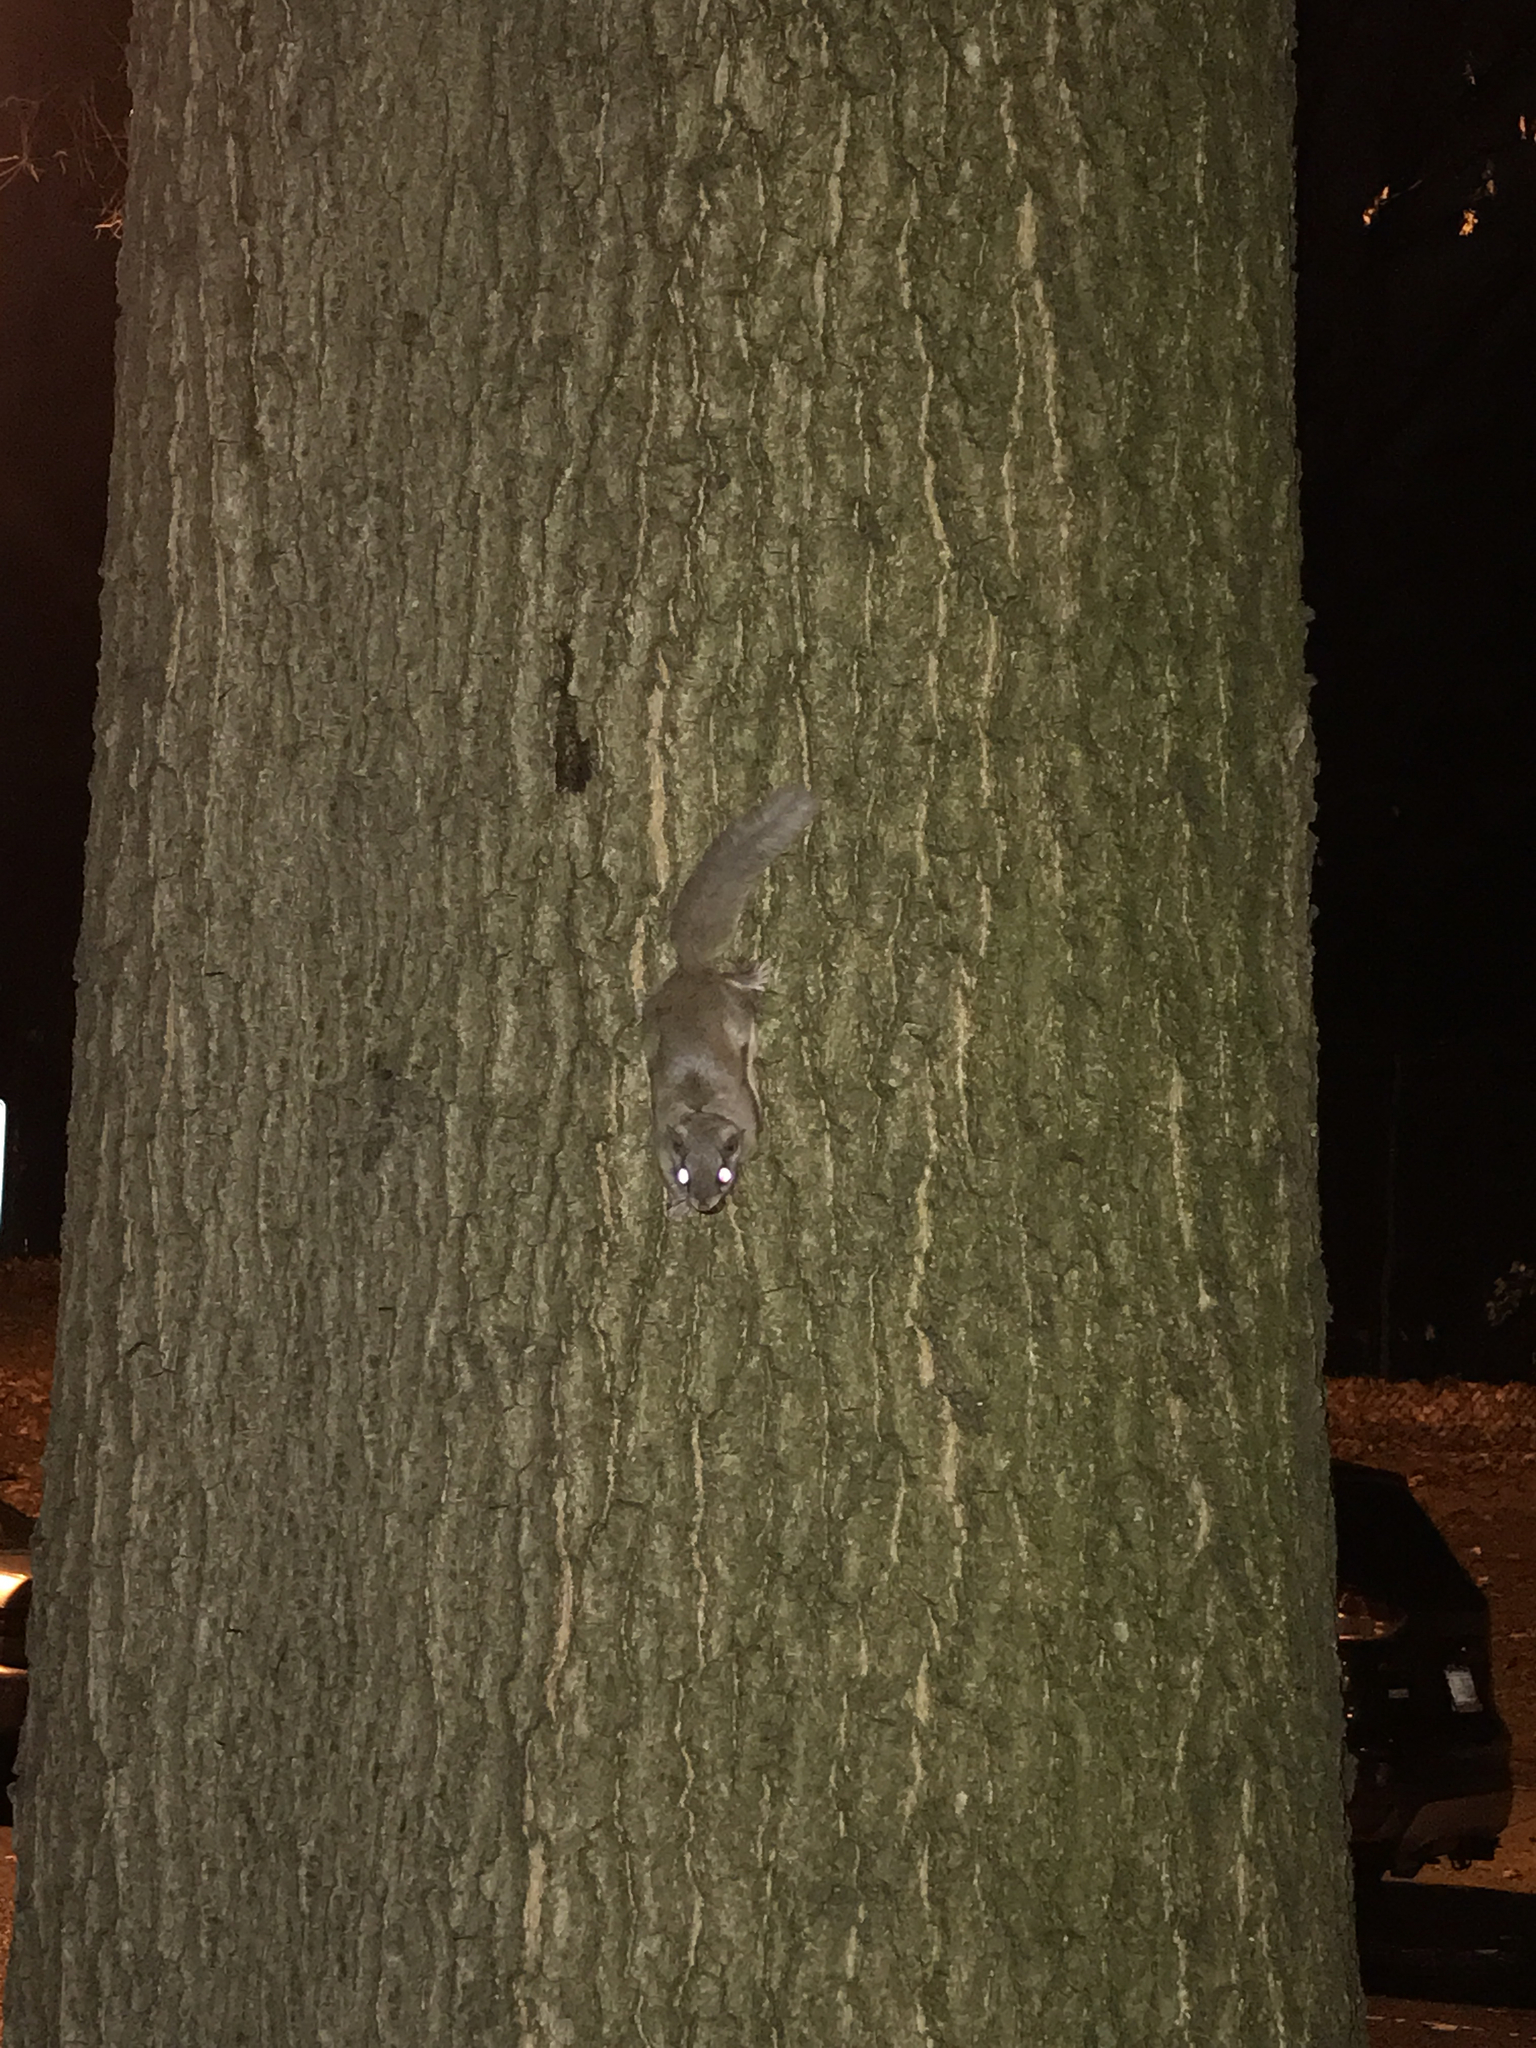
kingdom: Animalia
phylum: Chordata
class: Mammalia
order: Rodentia
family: Sciuridae
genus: Glaucomys
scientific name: Glaucomys volans
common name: Southern flying squirrel
